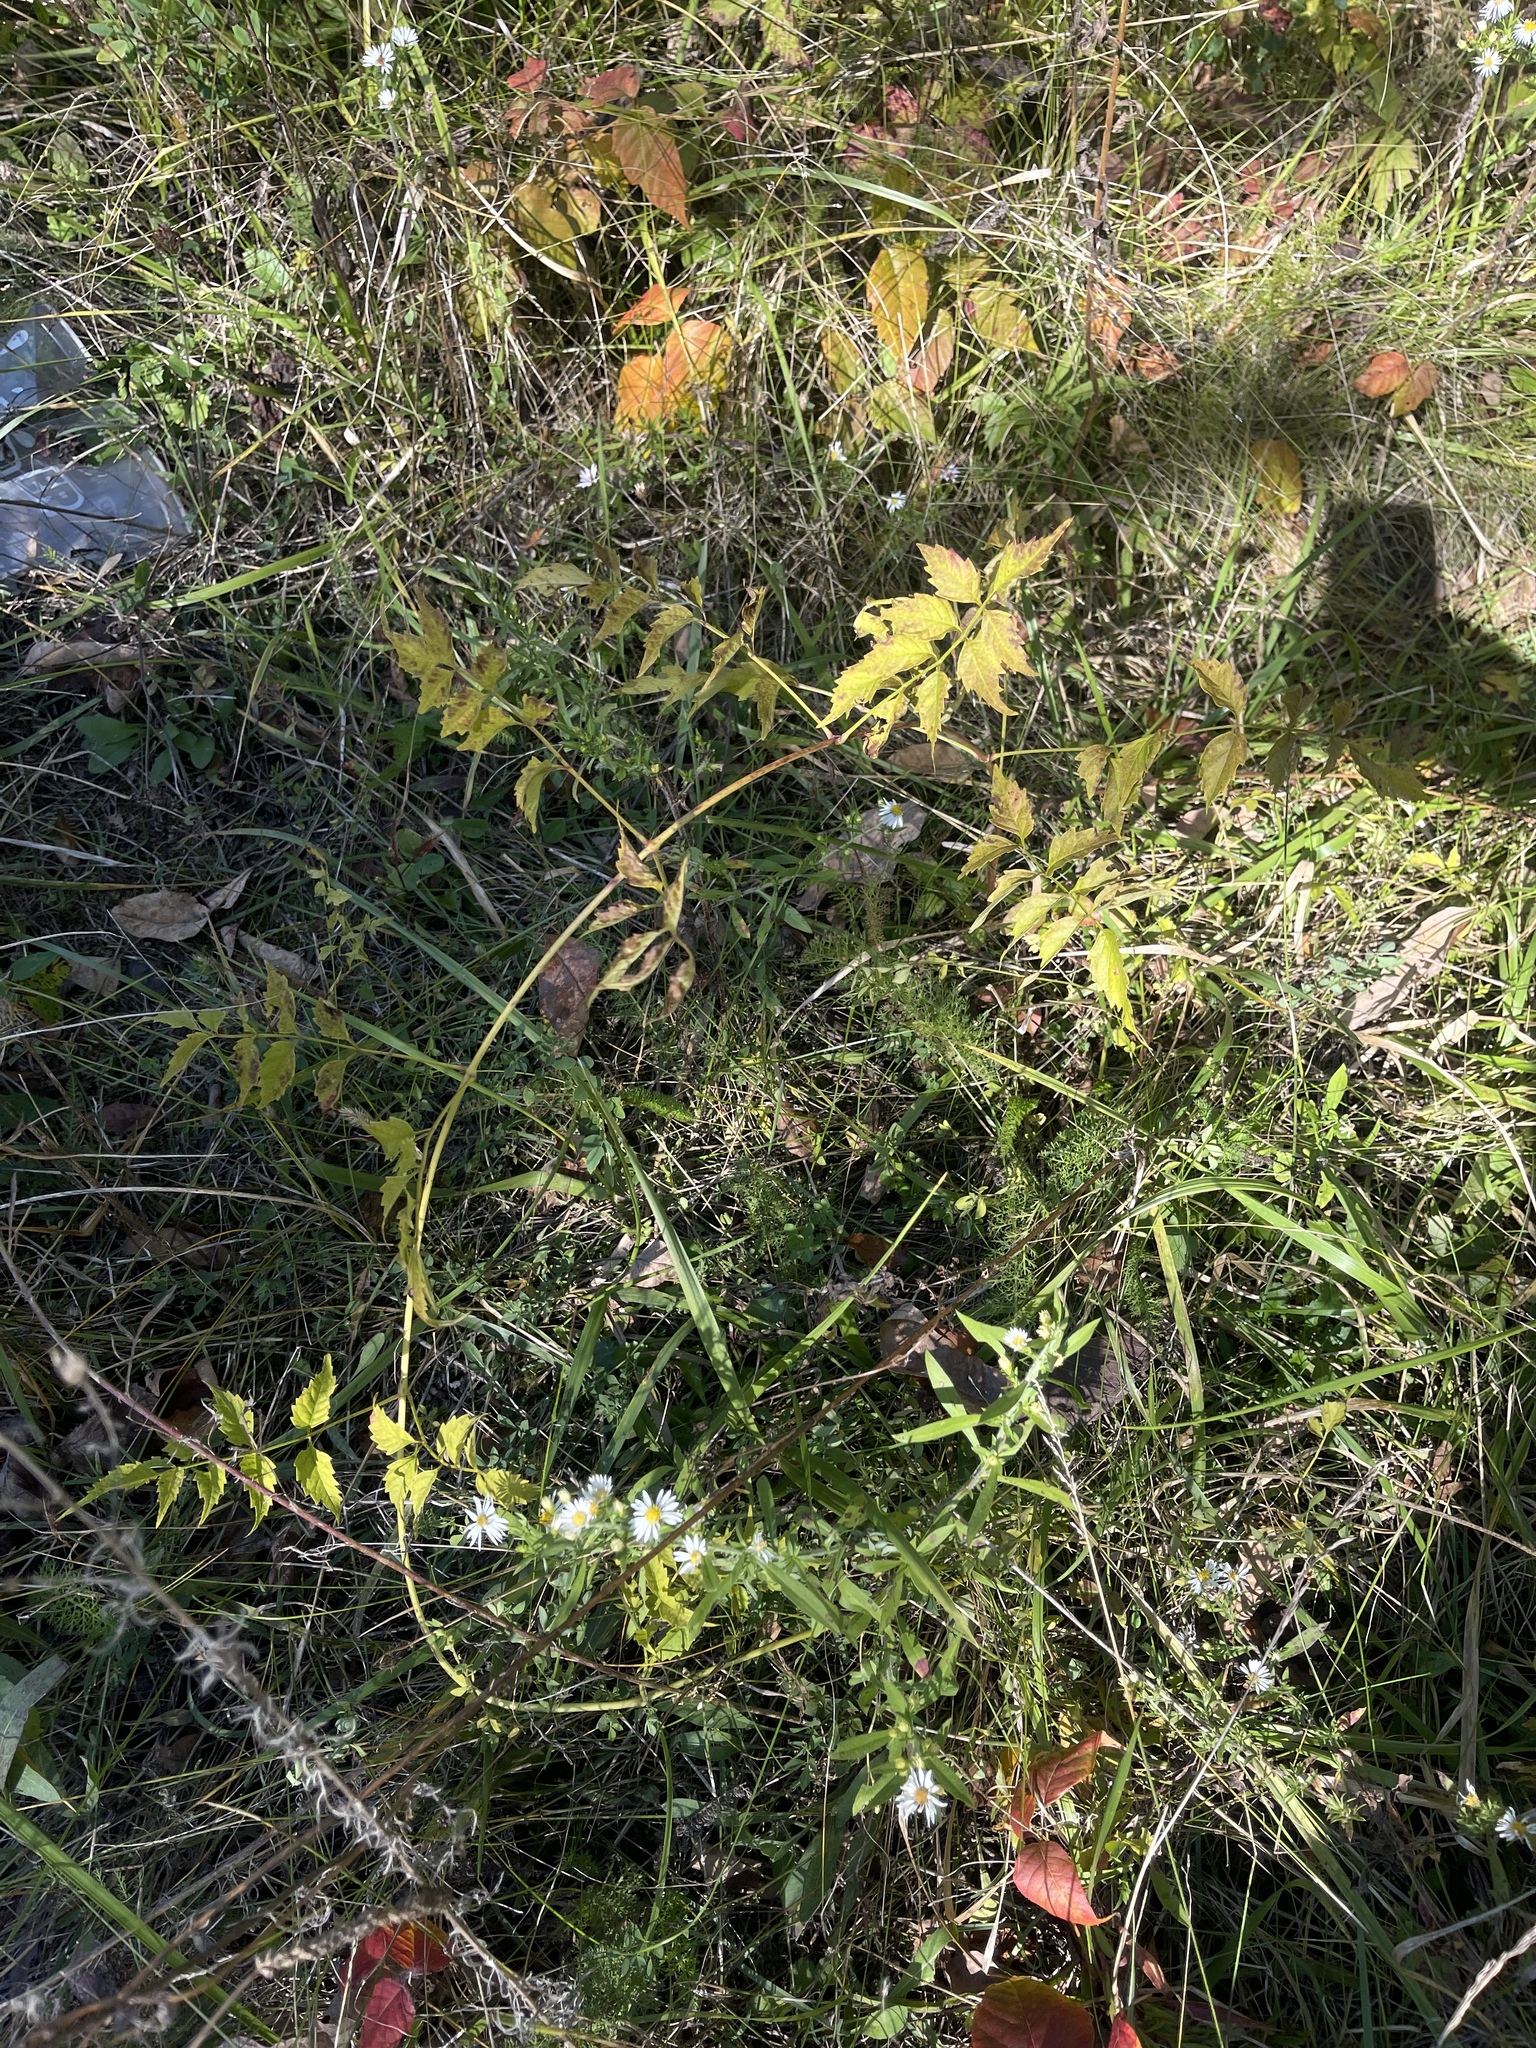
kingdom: Plantae
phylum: Tracheophyta
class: Magnoliopsida
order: Lamiales
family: Bignoniaceae
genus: Campsis
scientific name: Campsis radicans
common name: Trumpet-creeper
